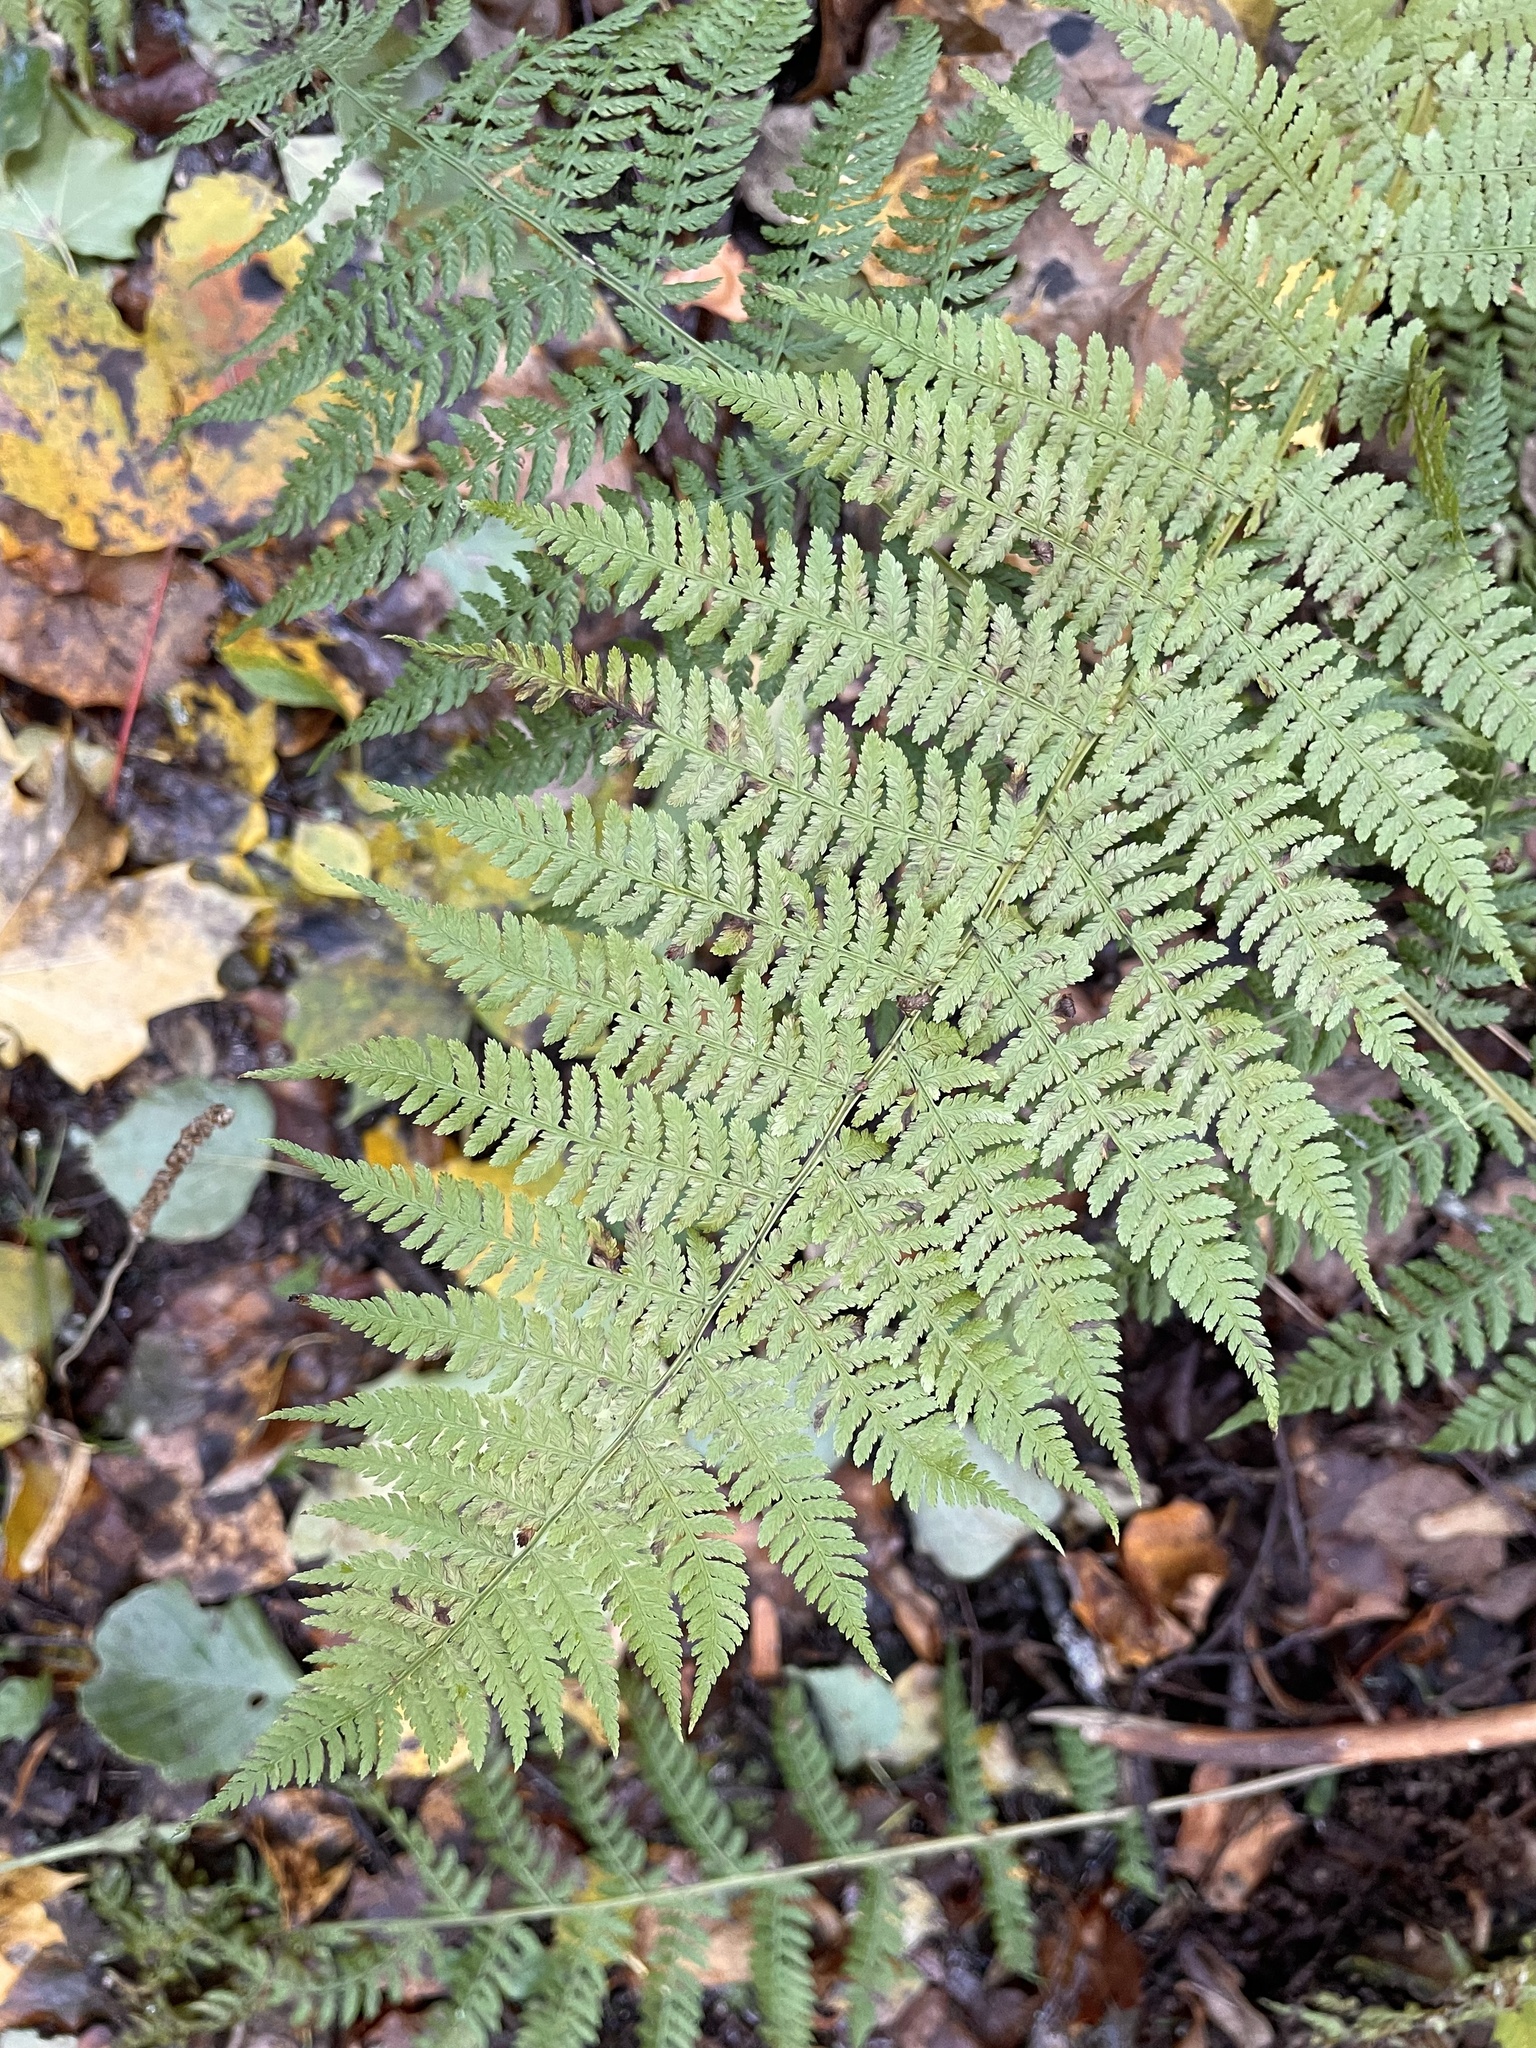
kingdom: Plantae
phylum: Tracheophyta
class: Polypodiopsida
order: Polypodiales
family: Athyriaceae
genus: Athyrium
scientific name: Athyrium filix-femina
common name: Lady fern
